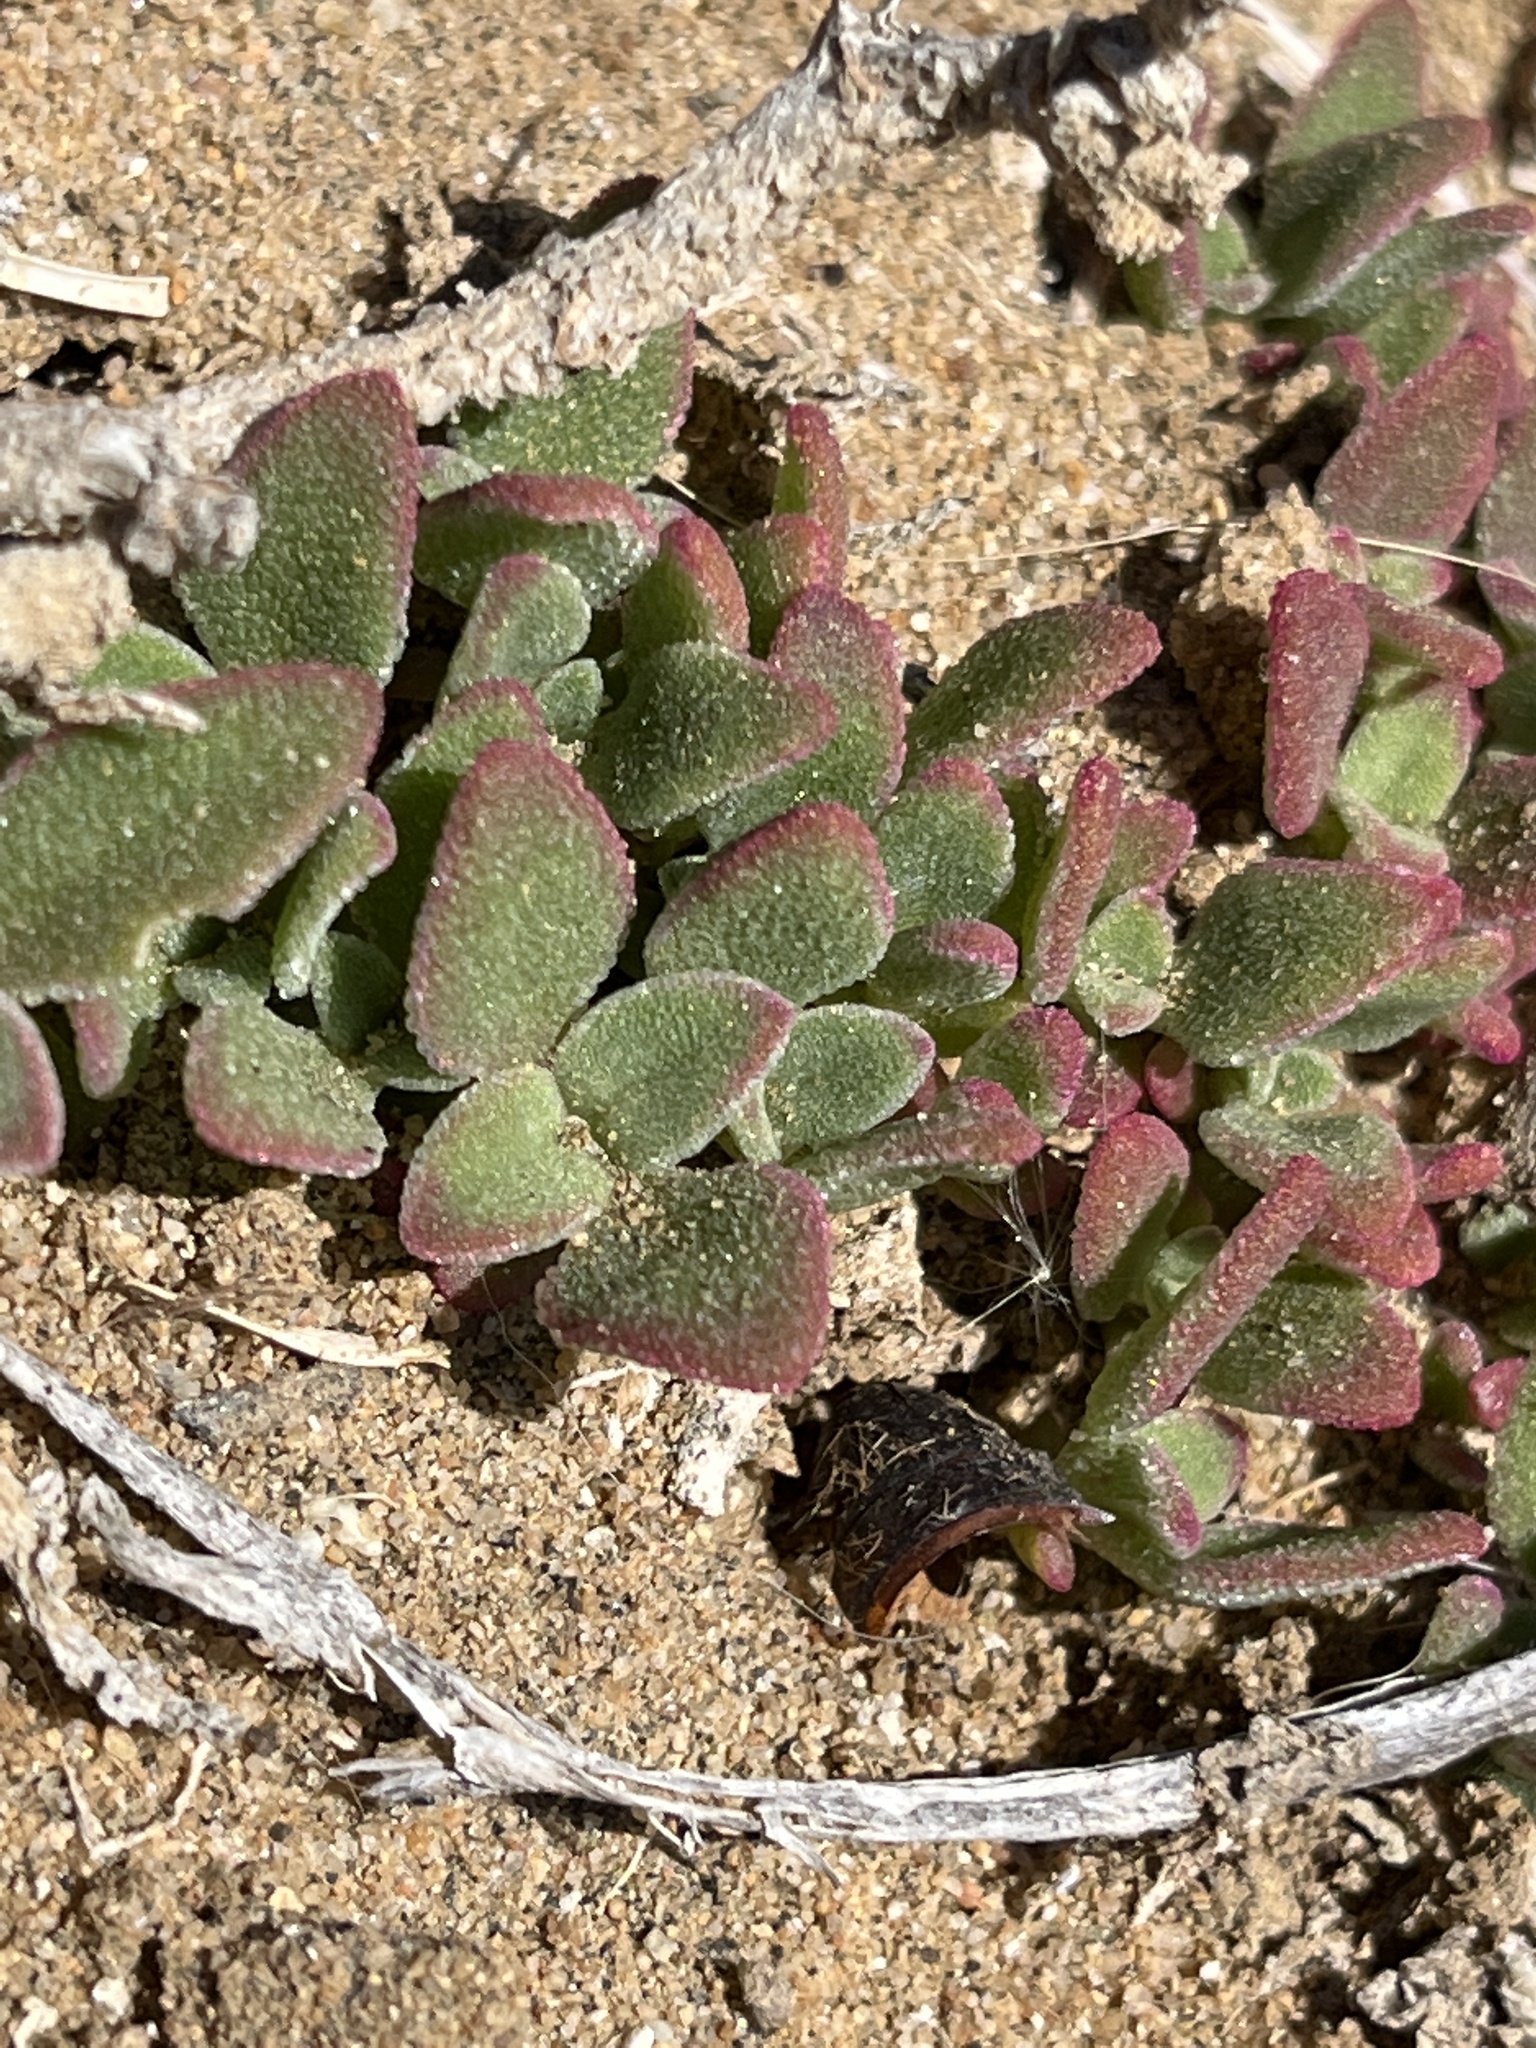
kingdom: Plantae
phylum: Tracheophyta
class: Magnoliopsida
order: Caryophyllales
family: Aizoaceae
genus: Mesembryanthemum
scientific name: Mesembryanthemum crystallinum
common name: Common iceplant
